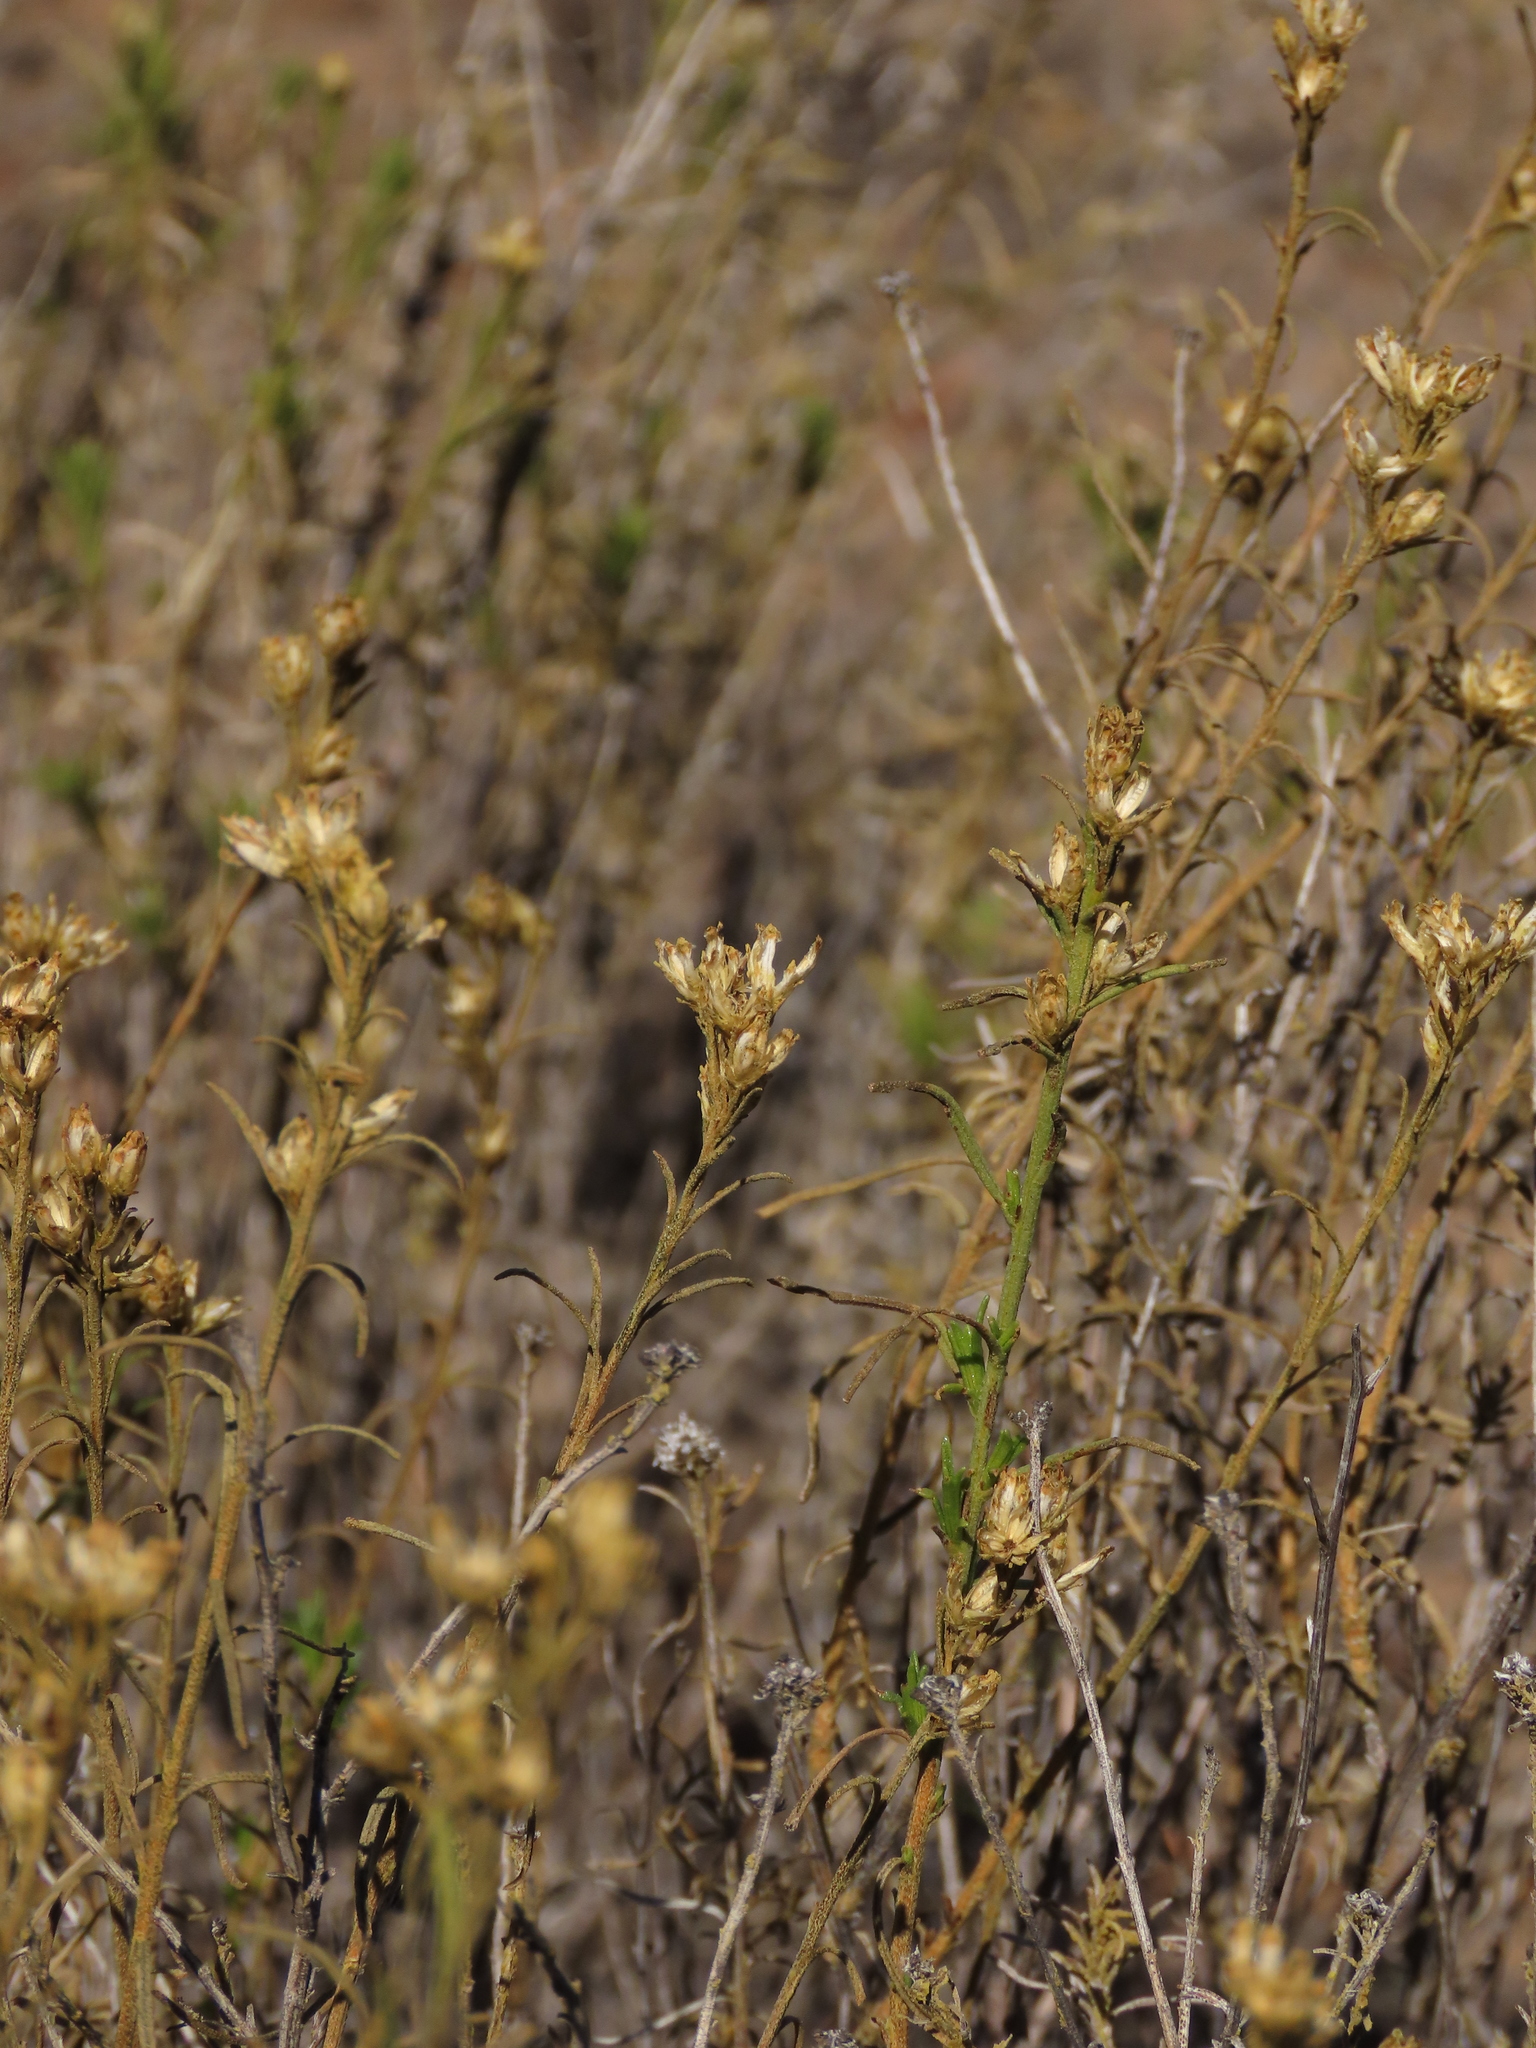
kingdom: Plantae
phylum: Tracheophyta
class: Magnoliopsida
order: Asterales
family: Asteraceae
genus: Gutierrezia
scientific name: Gutierrezia resinosa
